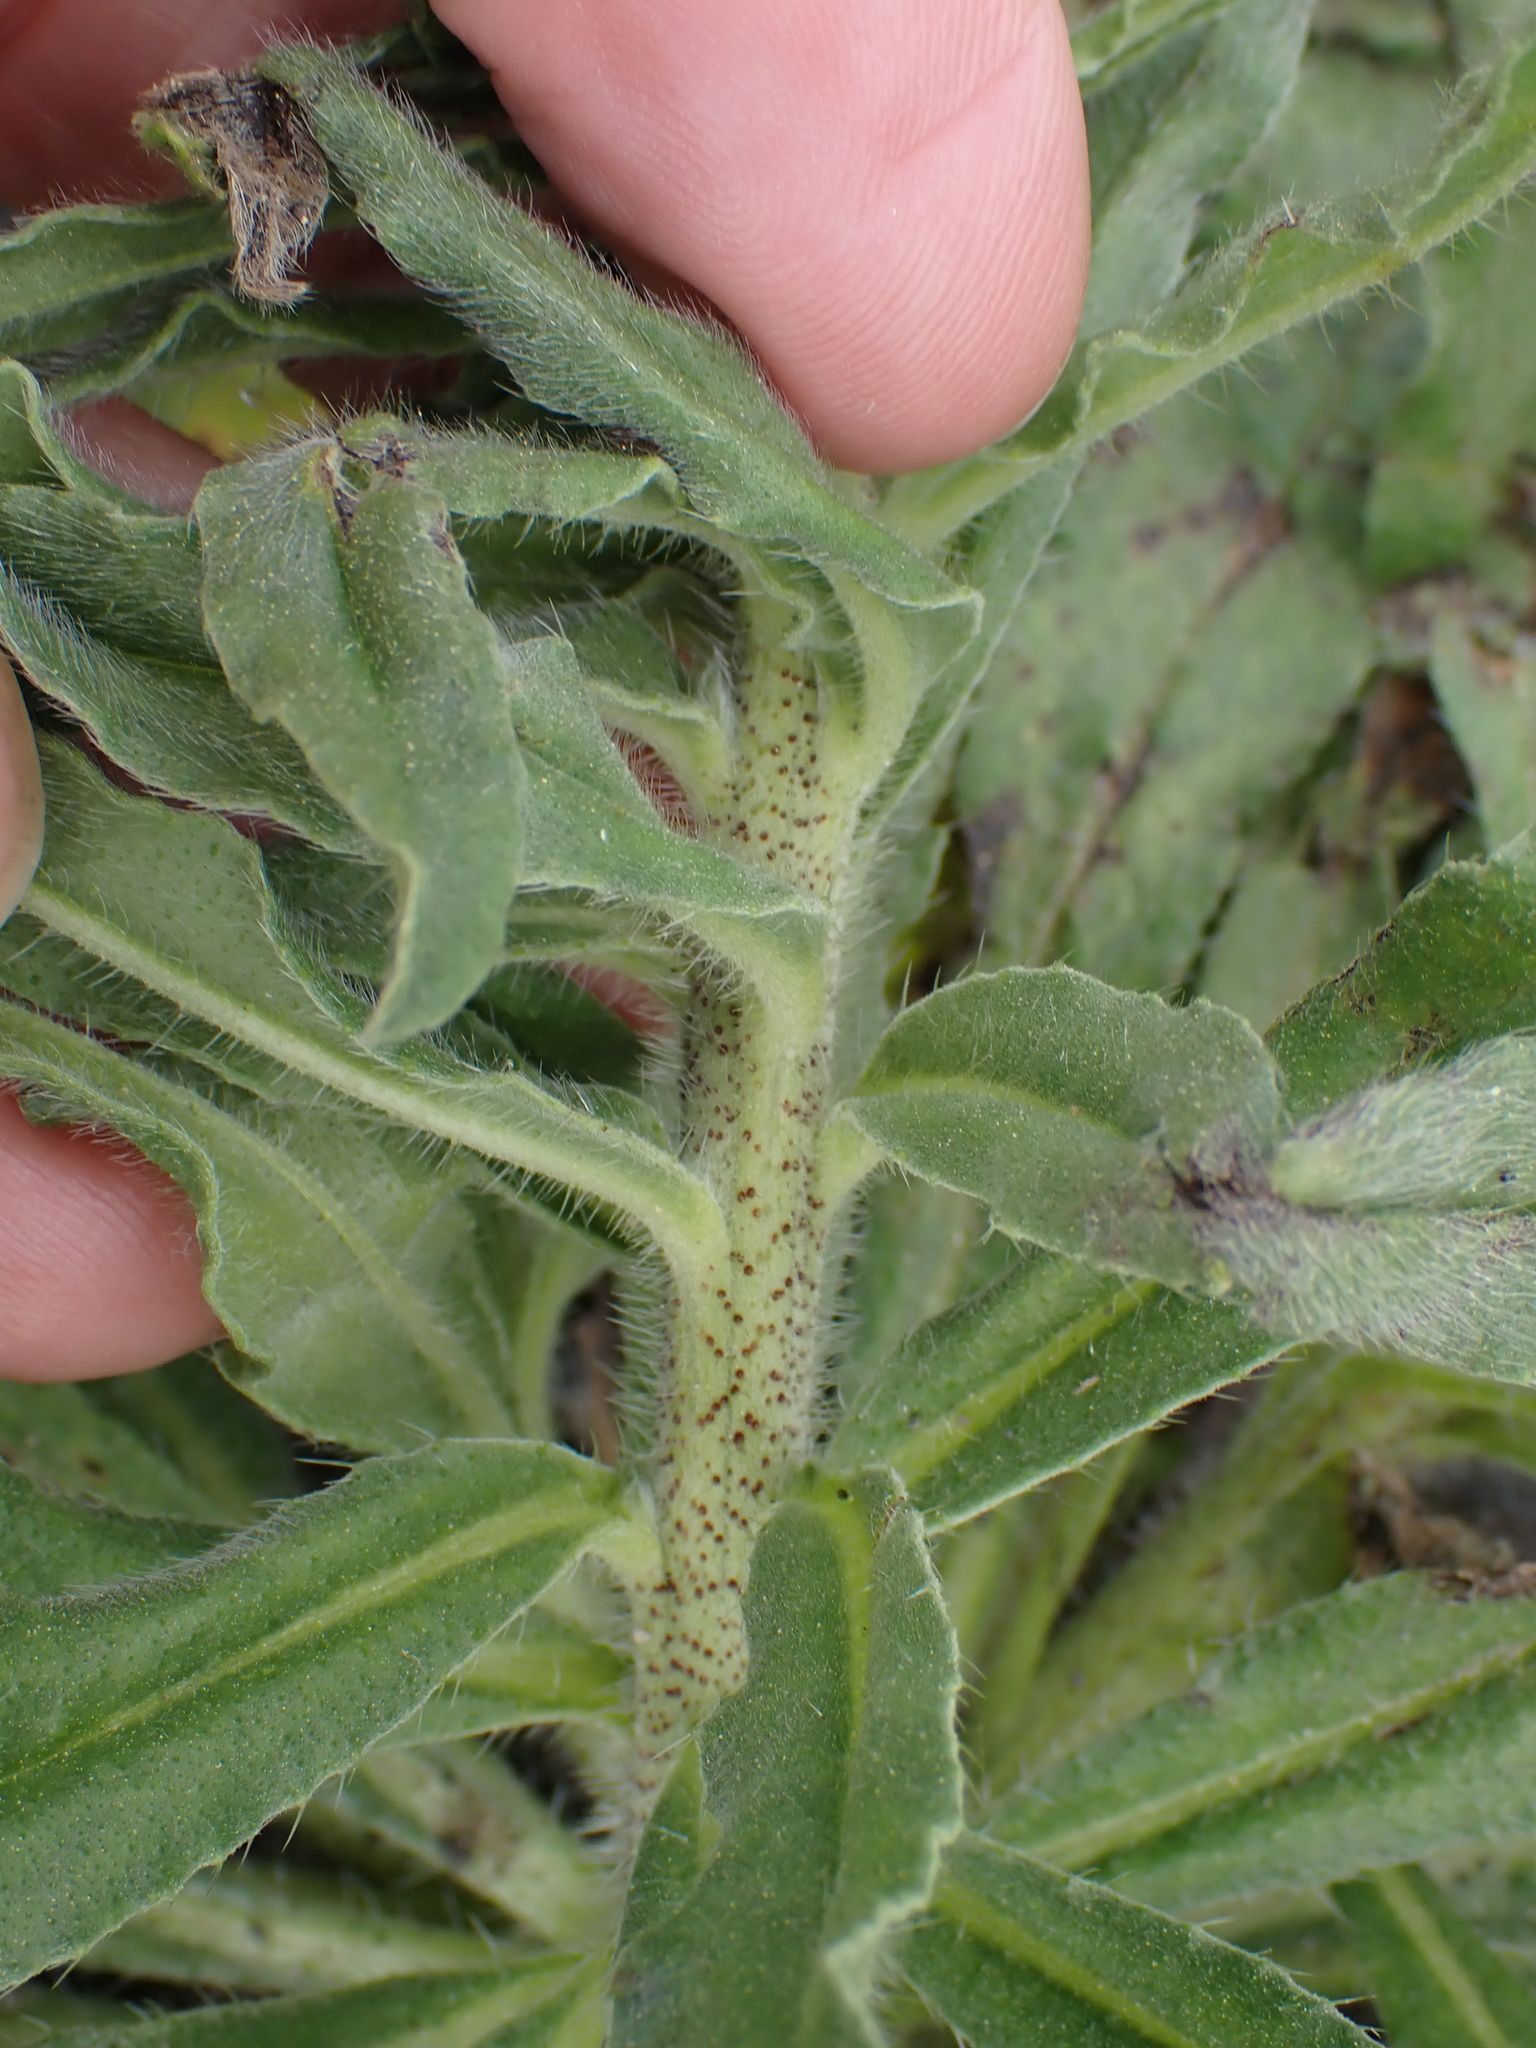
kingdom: Plantae
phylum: Tracheophyta
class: Magnoliopsida
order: Boraginales
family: Boraginaceae
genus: Echium
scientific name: Echium vulgare
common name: Common viper's bugloss
